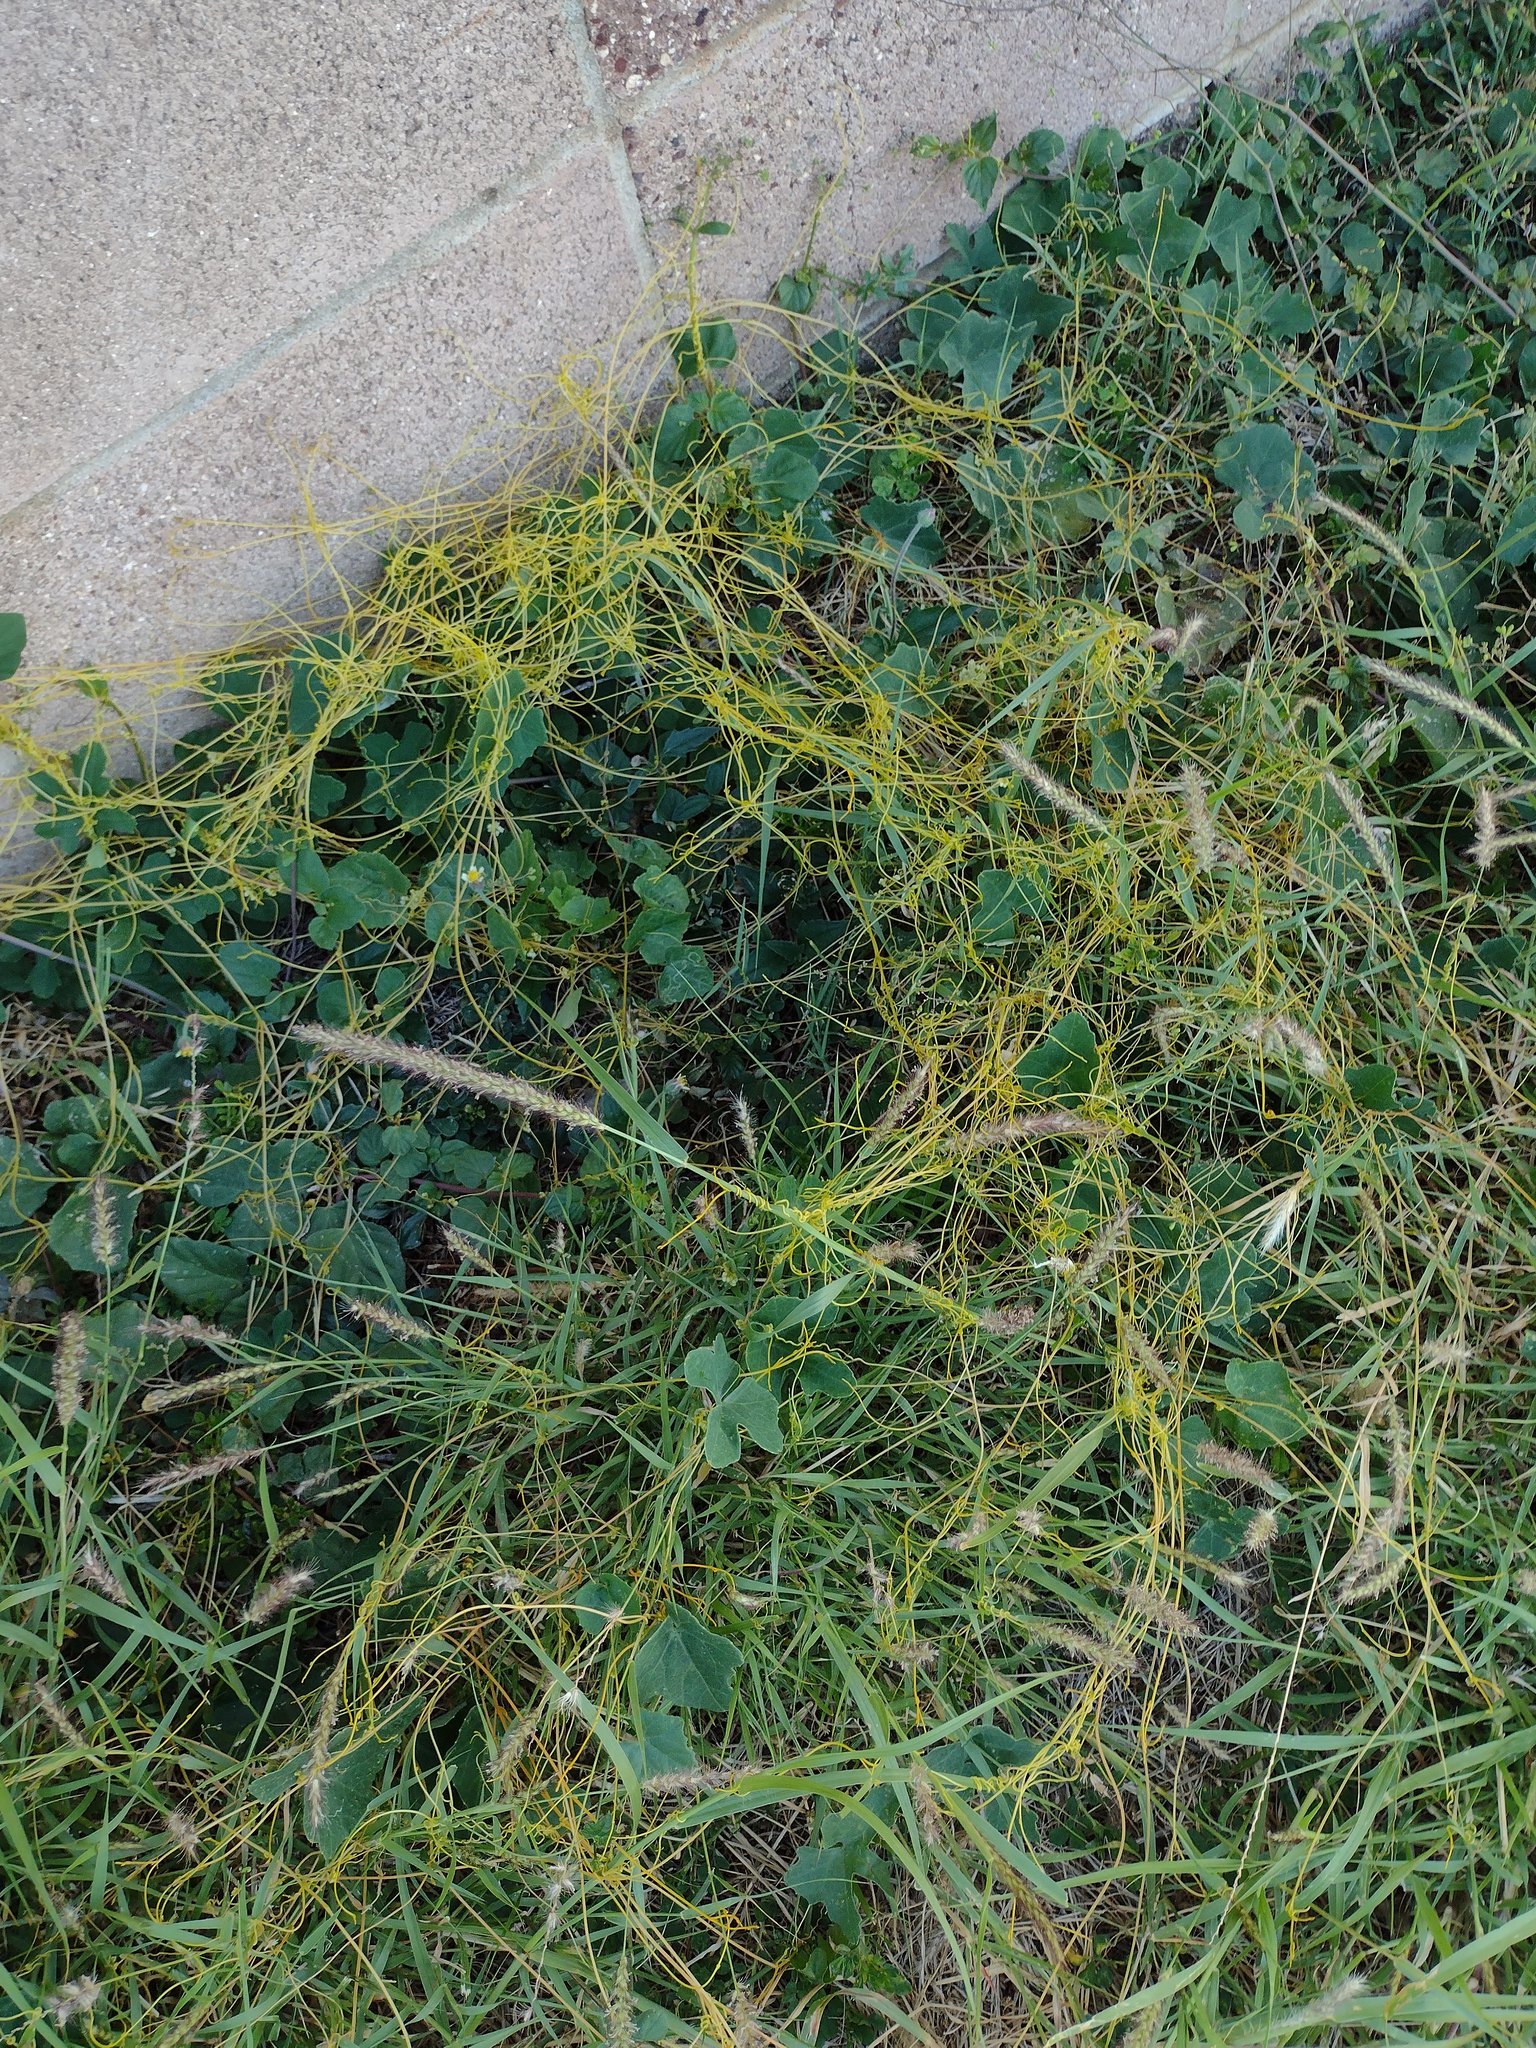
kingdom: Plantae
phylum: Tracheophyta
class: Magnoliopsida
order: Solanales
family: Convolvulaceae
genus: Cuscuta
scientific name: Cuscuta campestris
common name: Yellow dodder
